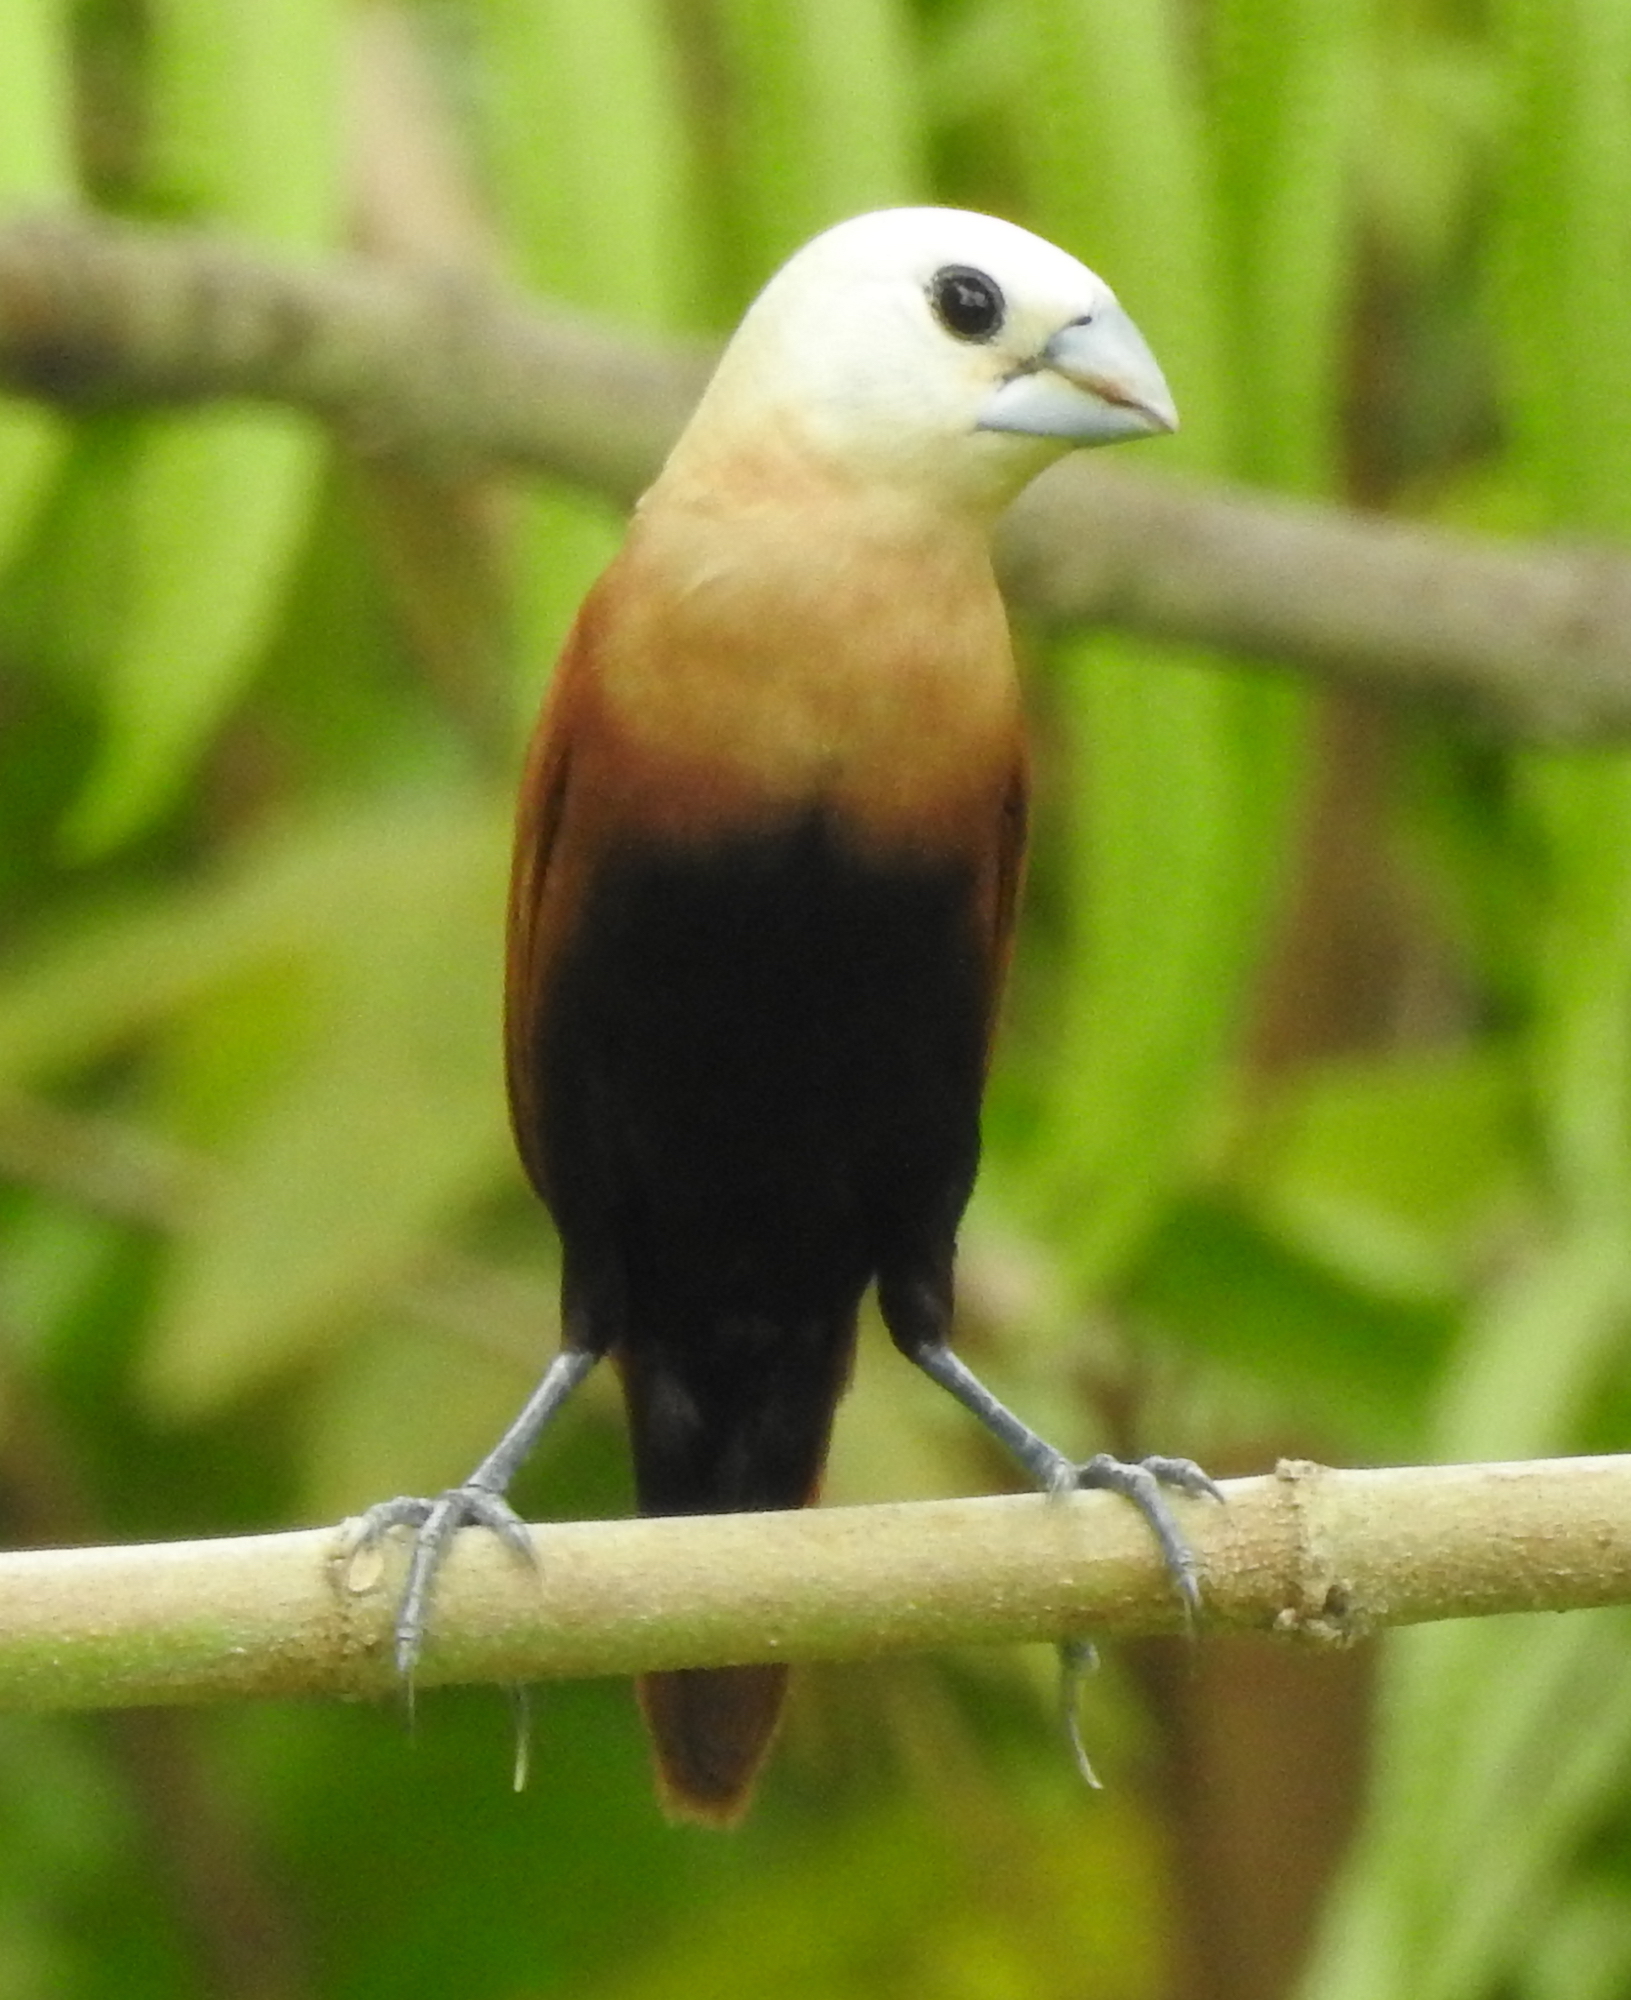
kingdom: Animalia
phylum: Chordata
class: Aves
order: Passeriformes
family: Estrildidae
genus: Lonchura
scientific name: Lonchura maja
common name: White-headed munia
